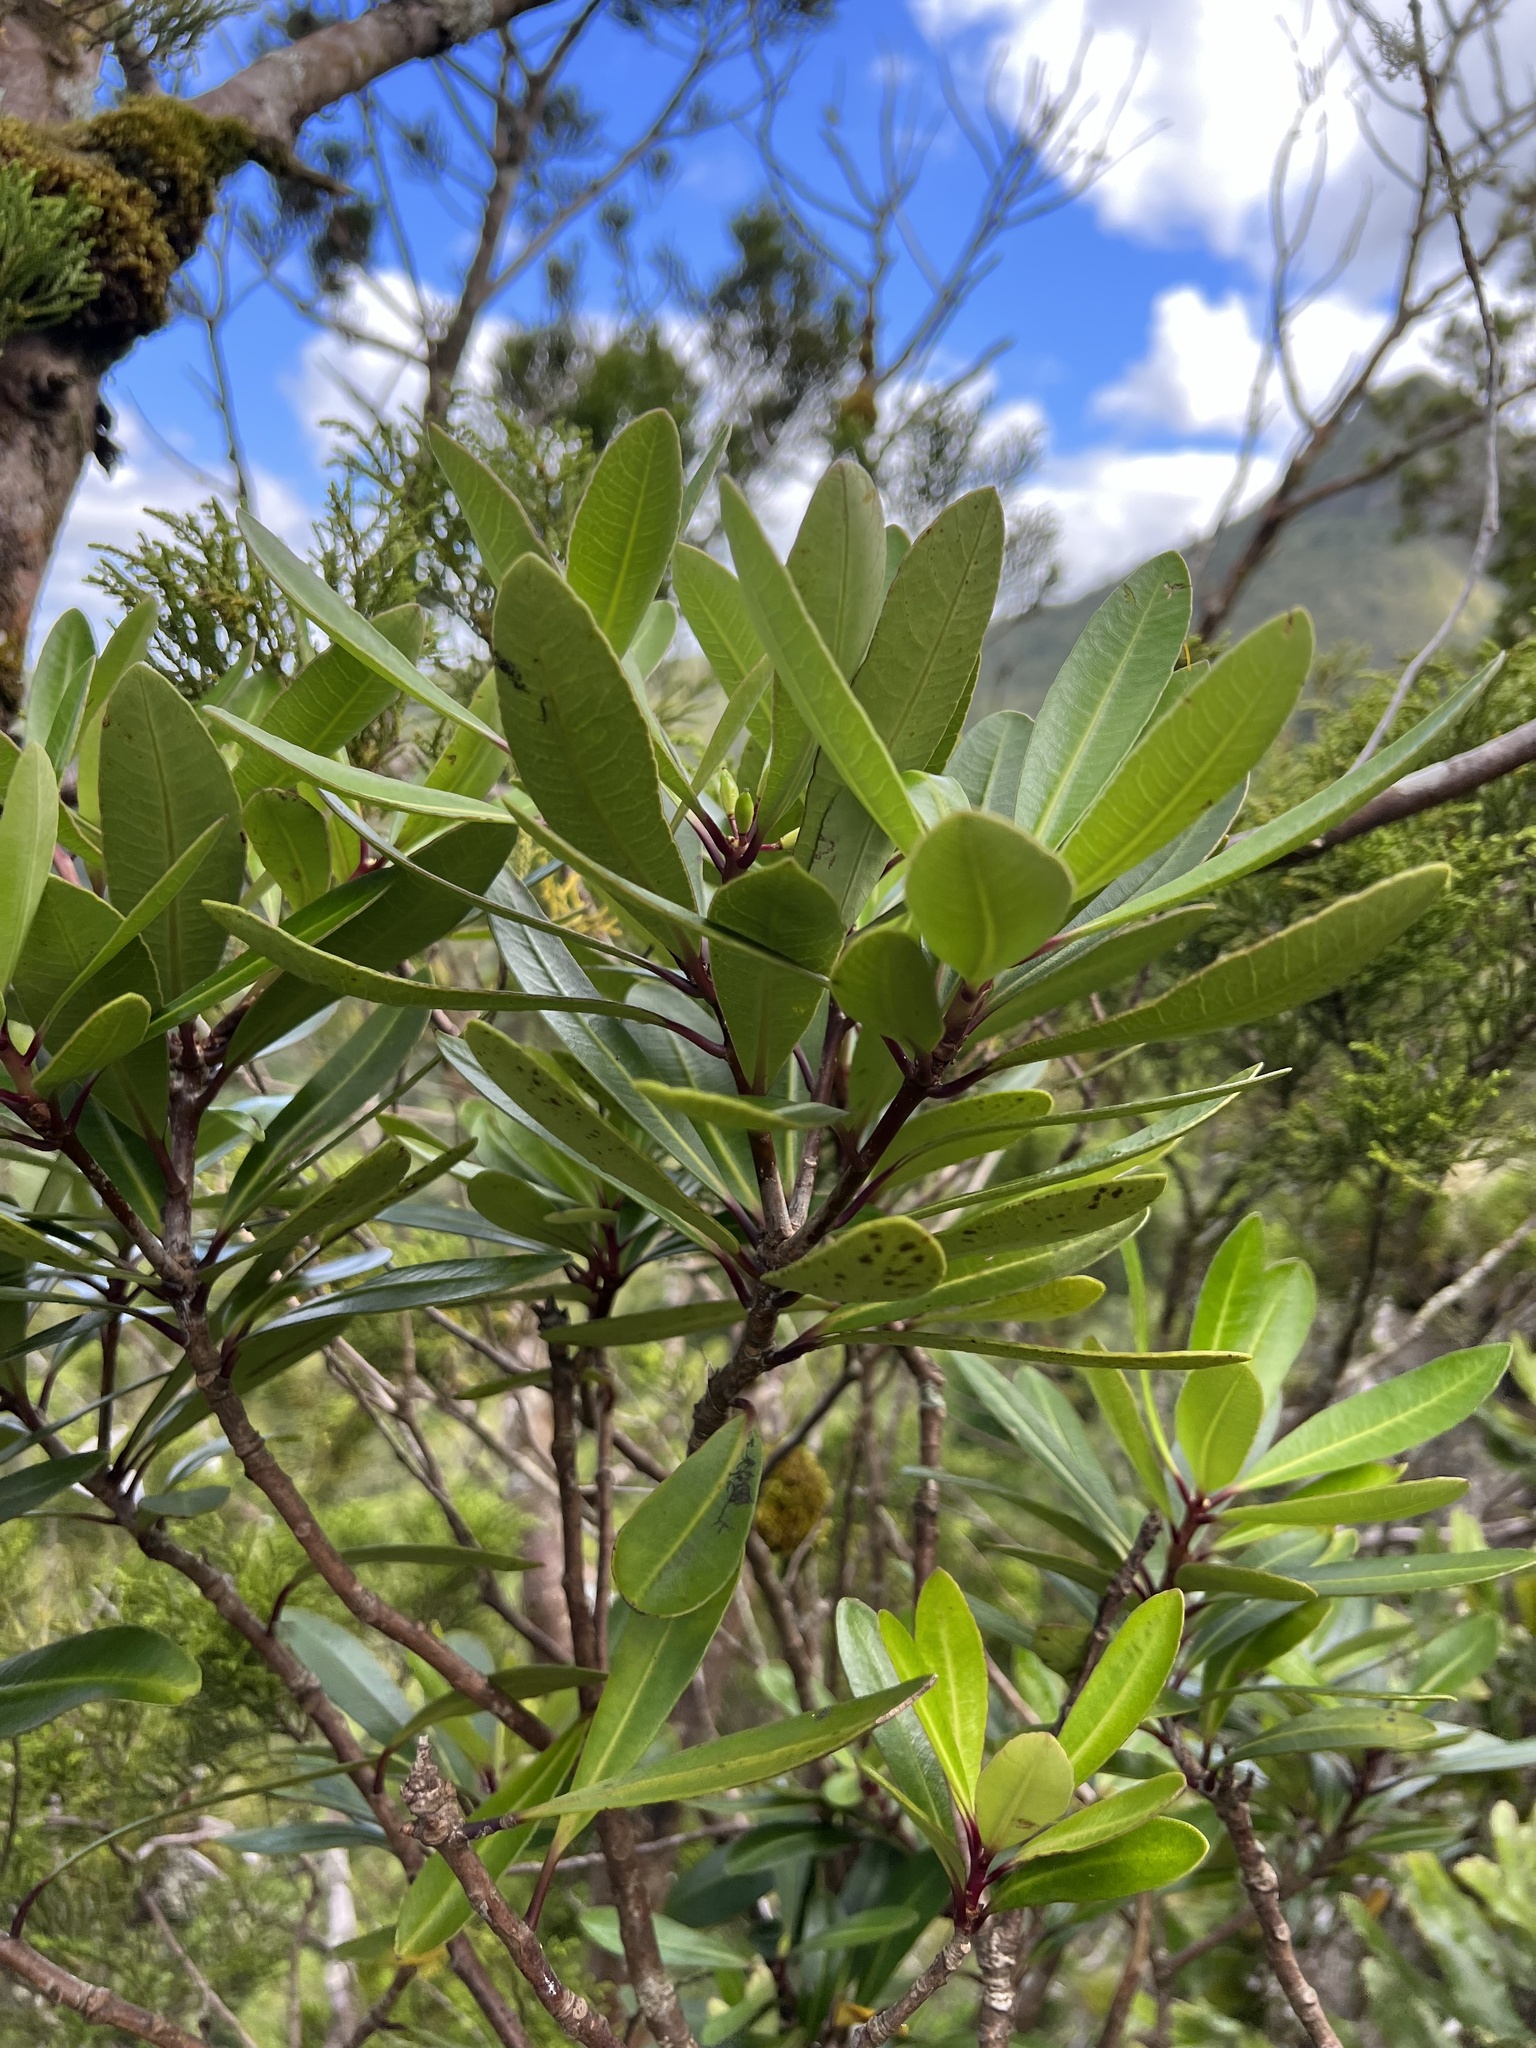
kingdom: Plantae
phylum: Tracheophyta
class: Magnoliopsida
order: Apiales
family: Pittosporaceae
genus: Pittosporum
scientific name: Pittosporum kirkii
